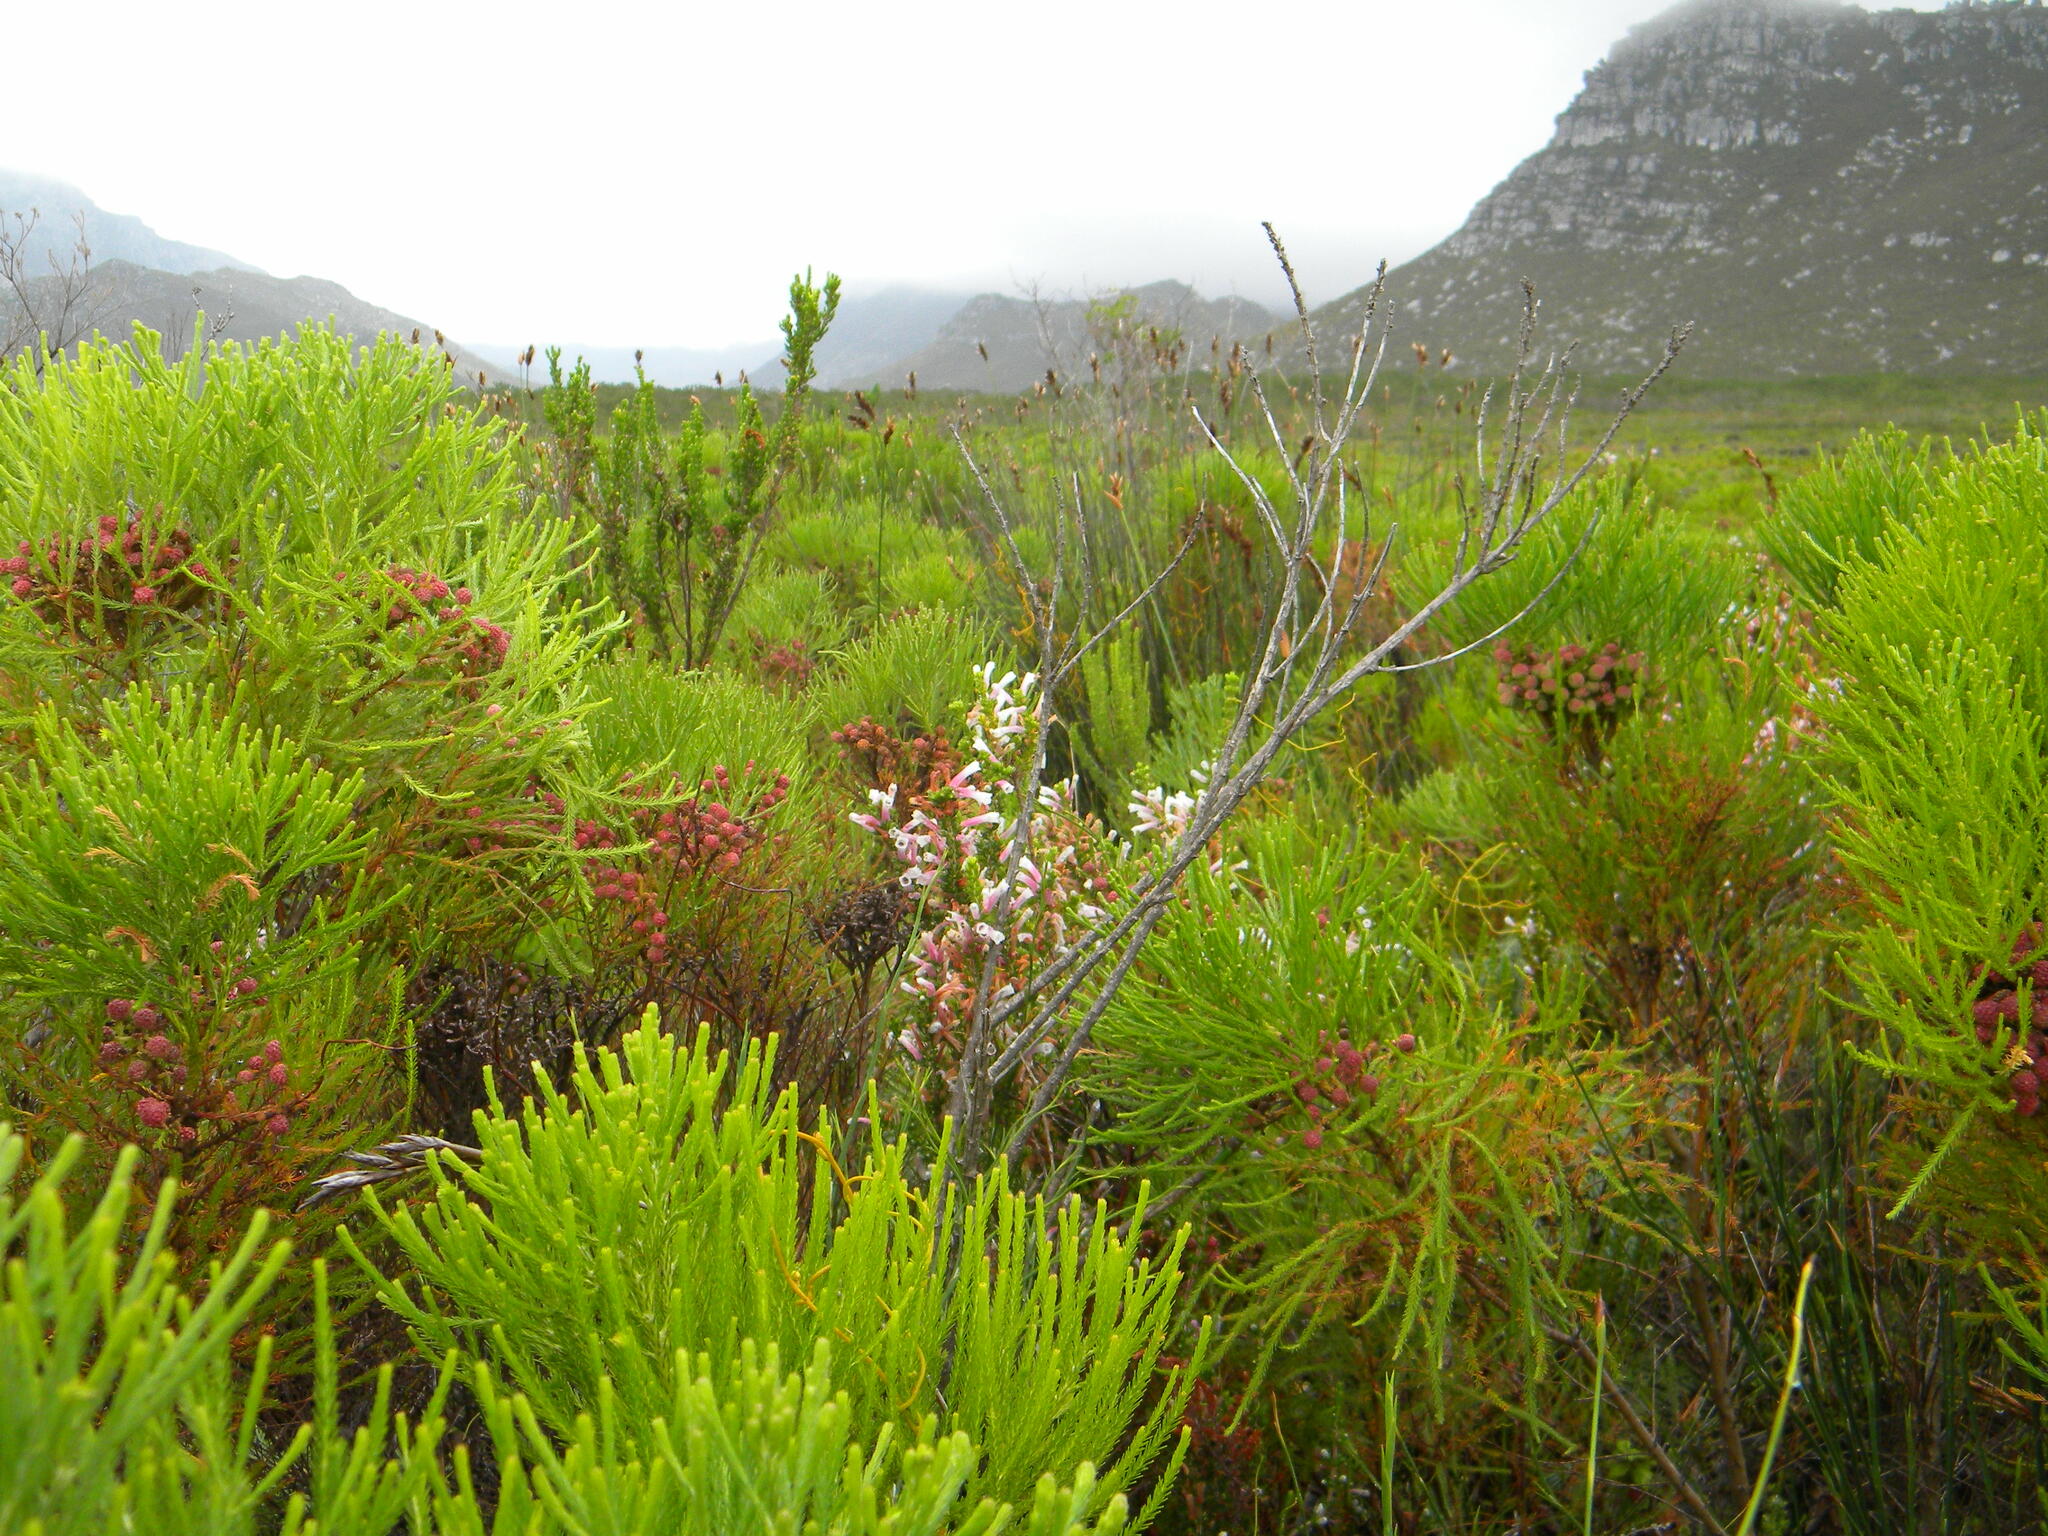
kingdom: Plantae
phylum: Tracheophyta
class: Magnoliopsida
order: Ericales
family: Ericaceae
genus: Erica
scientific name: Erica perspicua
